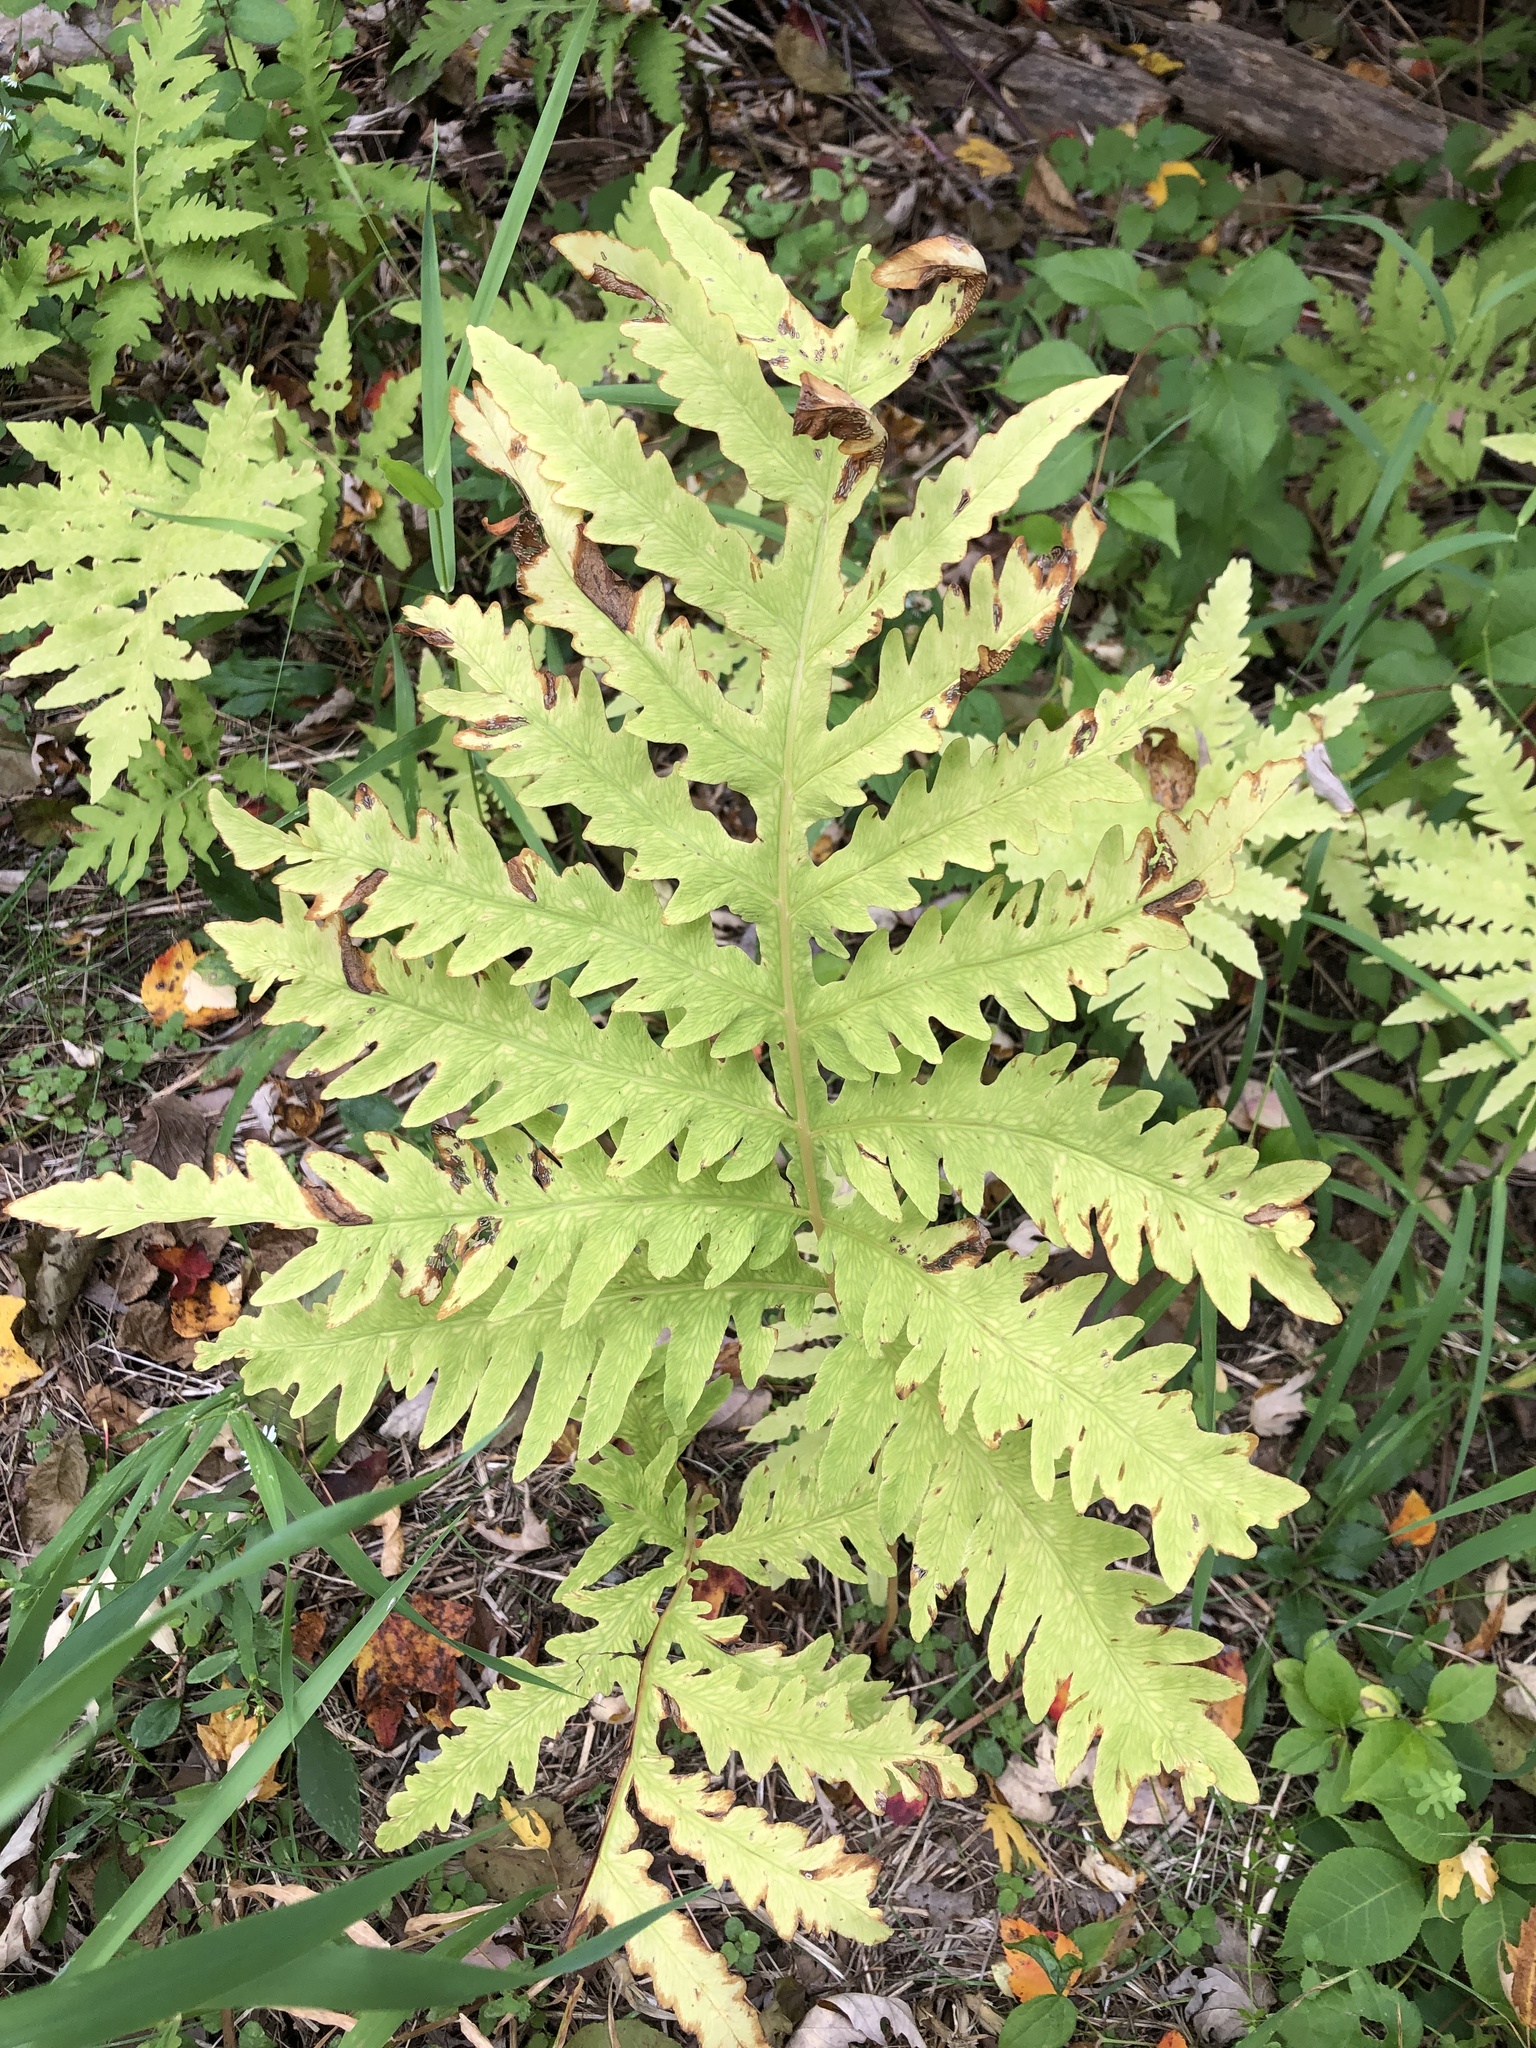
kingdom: Plantae
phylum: Tracheophyta
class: Polypodiopsida
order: Polypodiales
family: Onocleaceae
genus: Onoclea
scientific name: Onoclea sensibilis
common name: Sensitive fern
